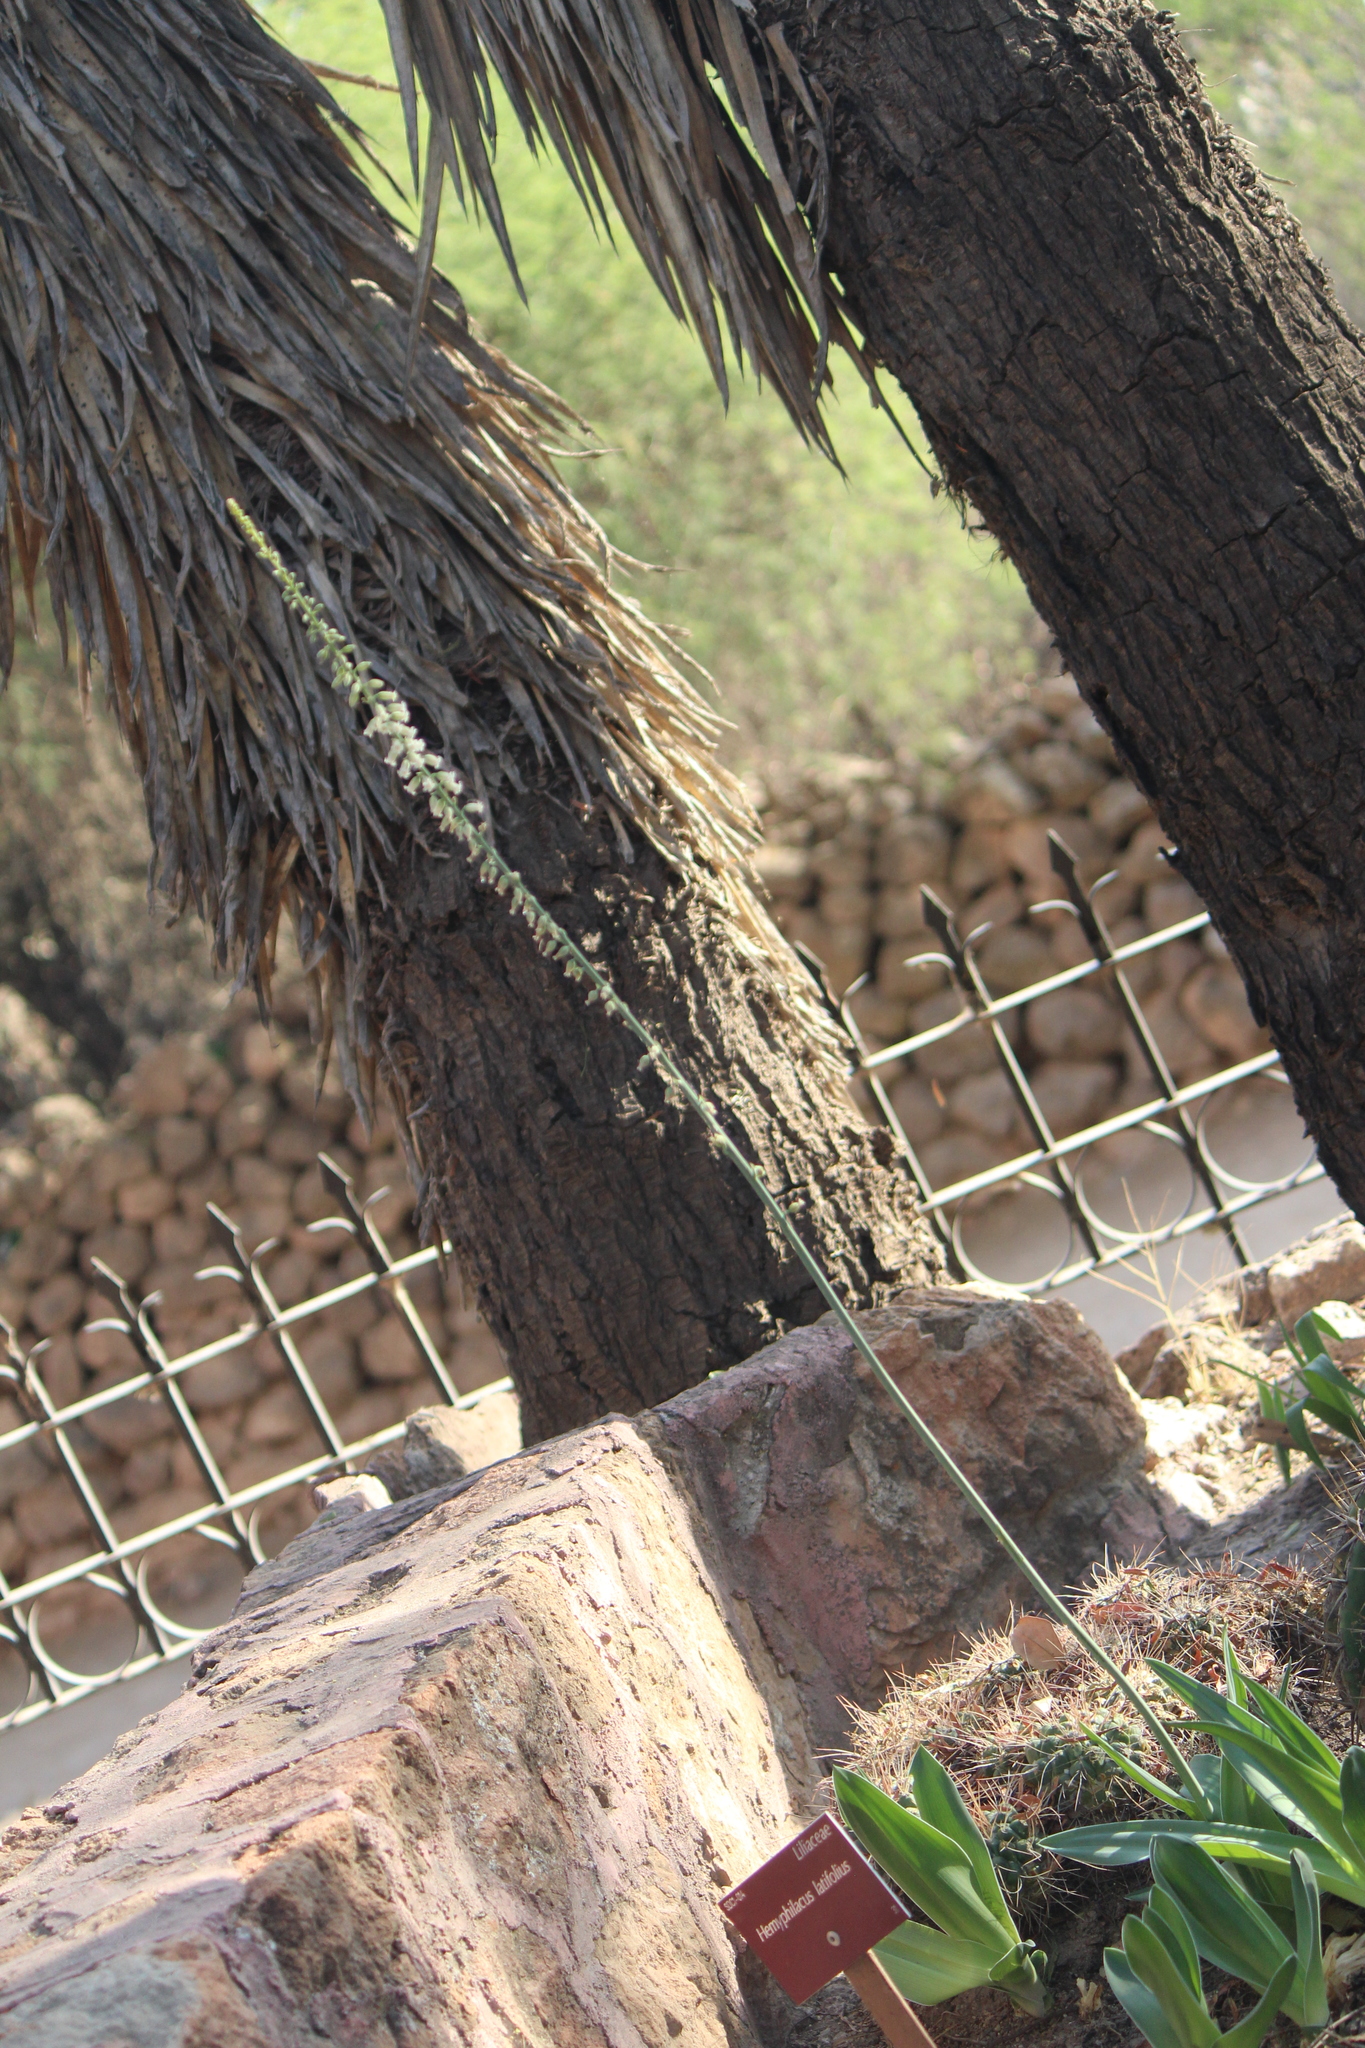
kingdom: Plantae
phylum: Tracheophyta
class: Liliopsida
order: Asparagales
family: Asparagaceae
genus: Hemiphylacus
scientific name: Hemiphylacus latifolius
